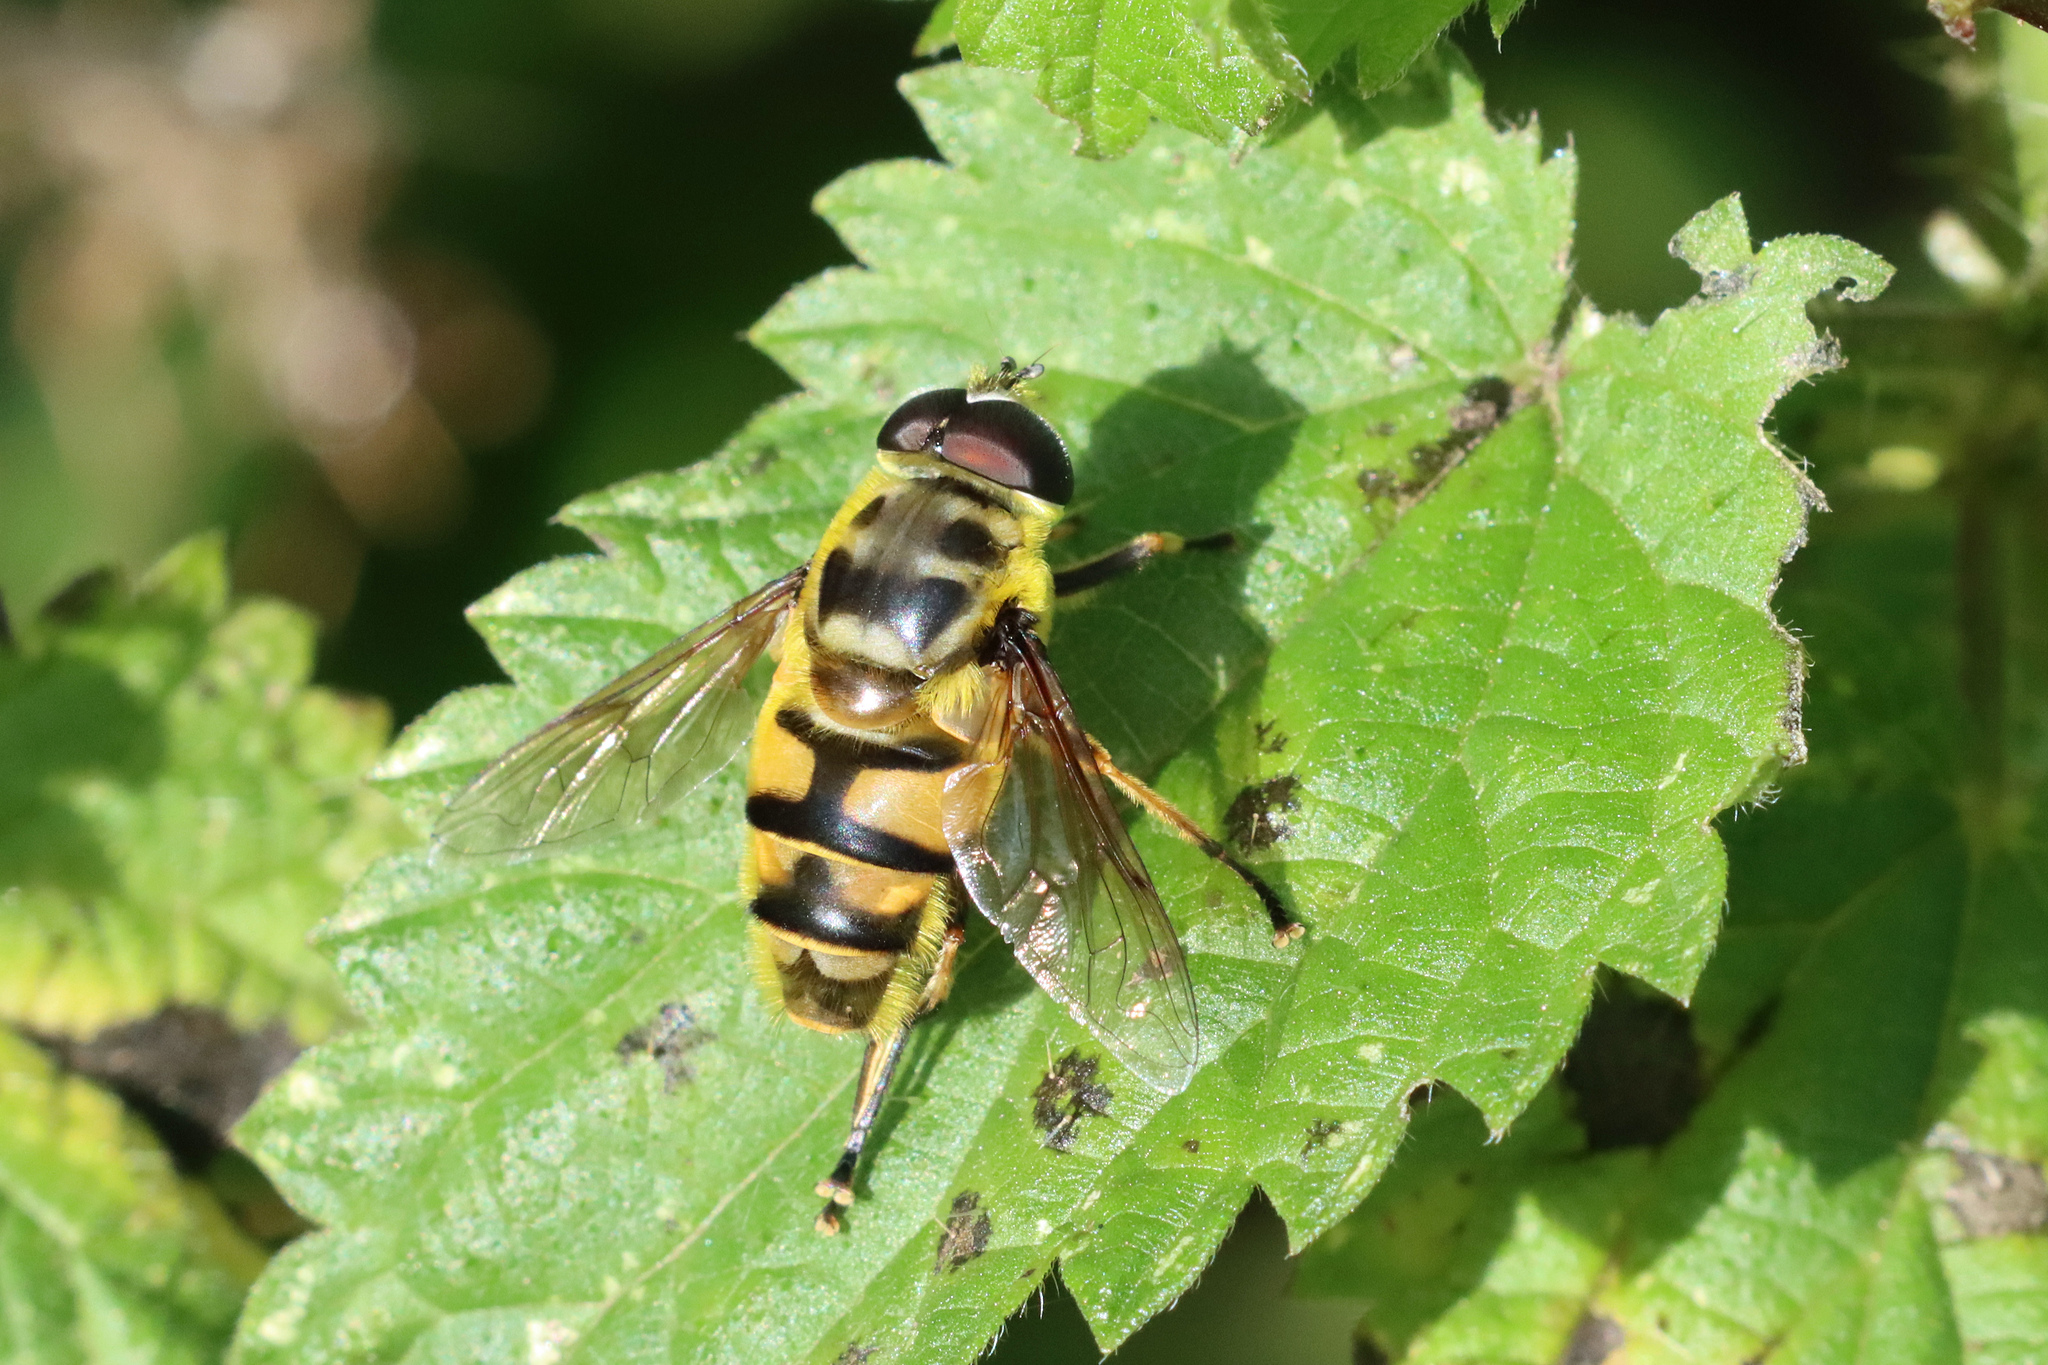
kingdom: Animalia
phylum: Arthropoda
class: Insecta
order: Diptera
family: Syrphidae
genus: Myathropa
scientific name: Myathropa florea
